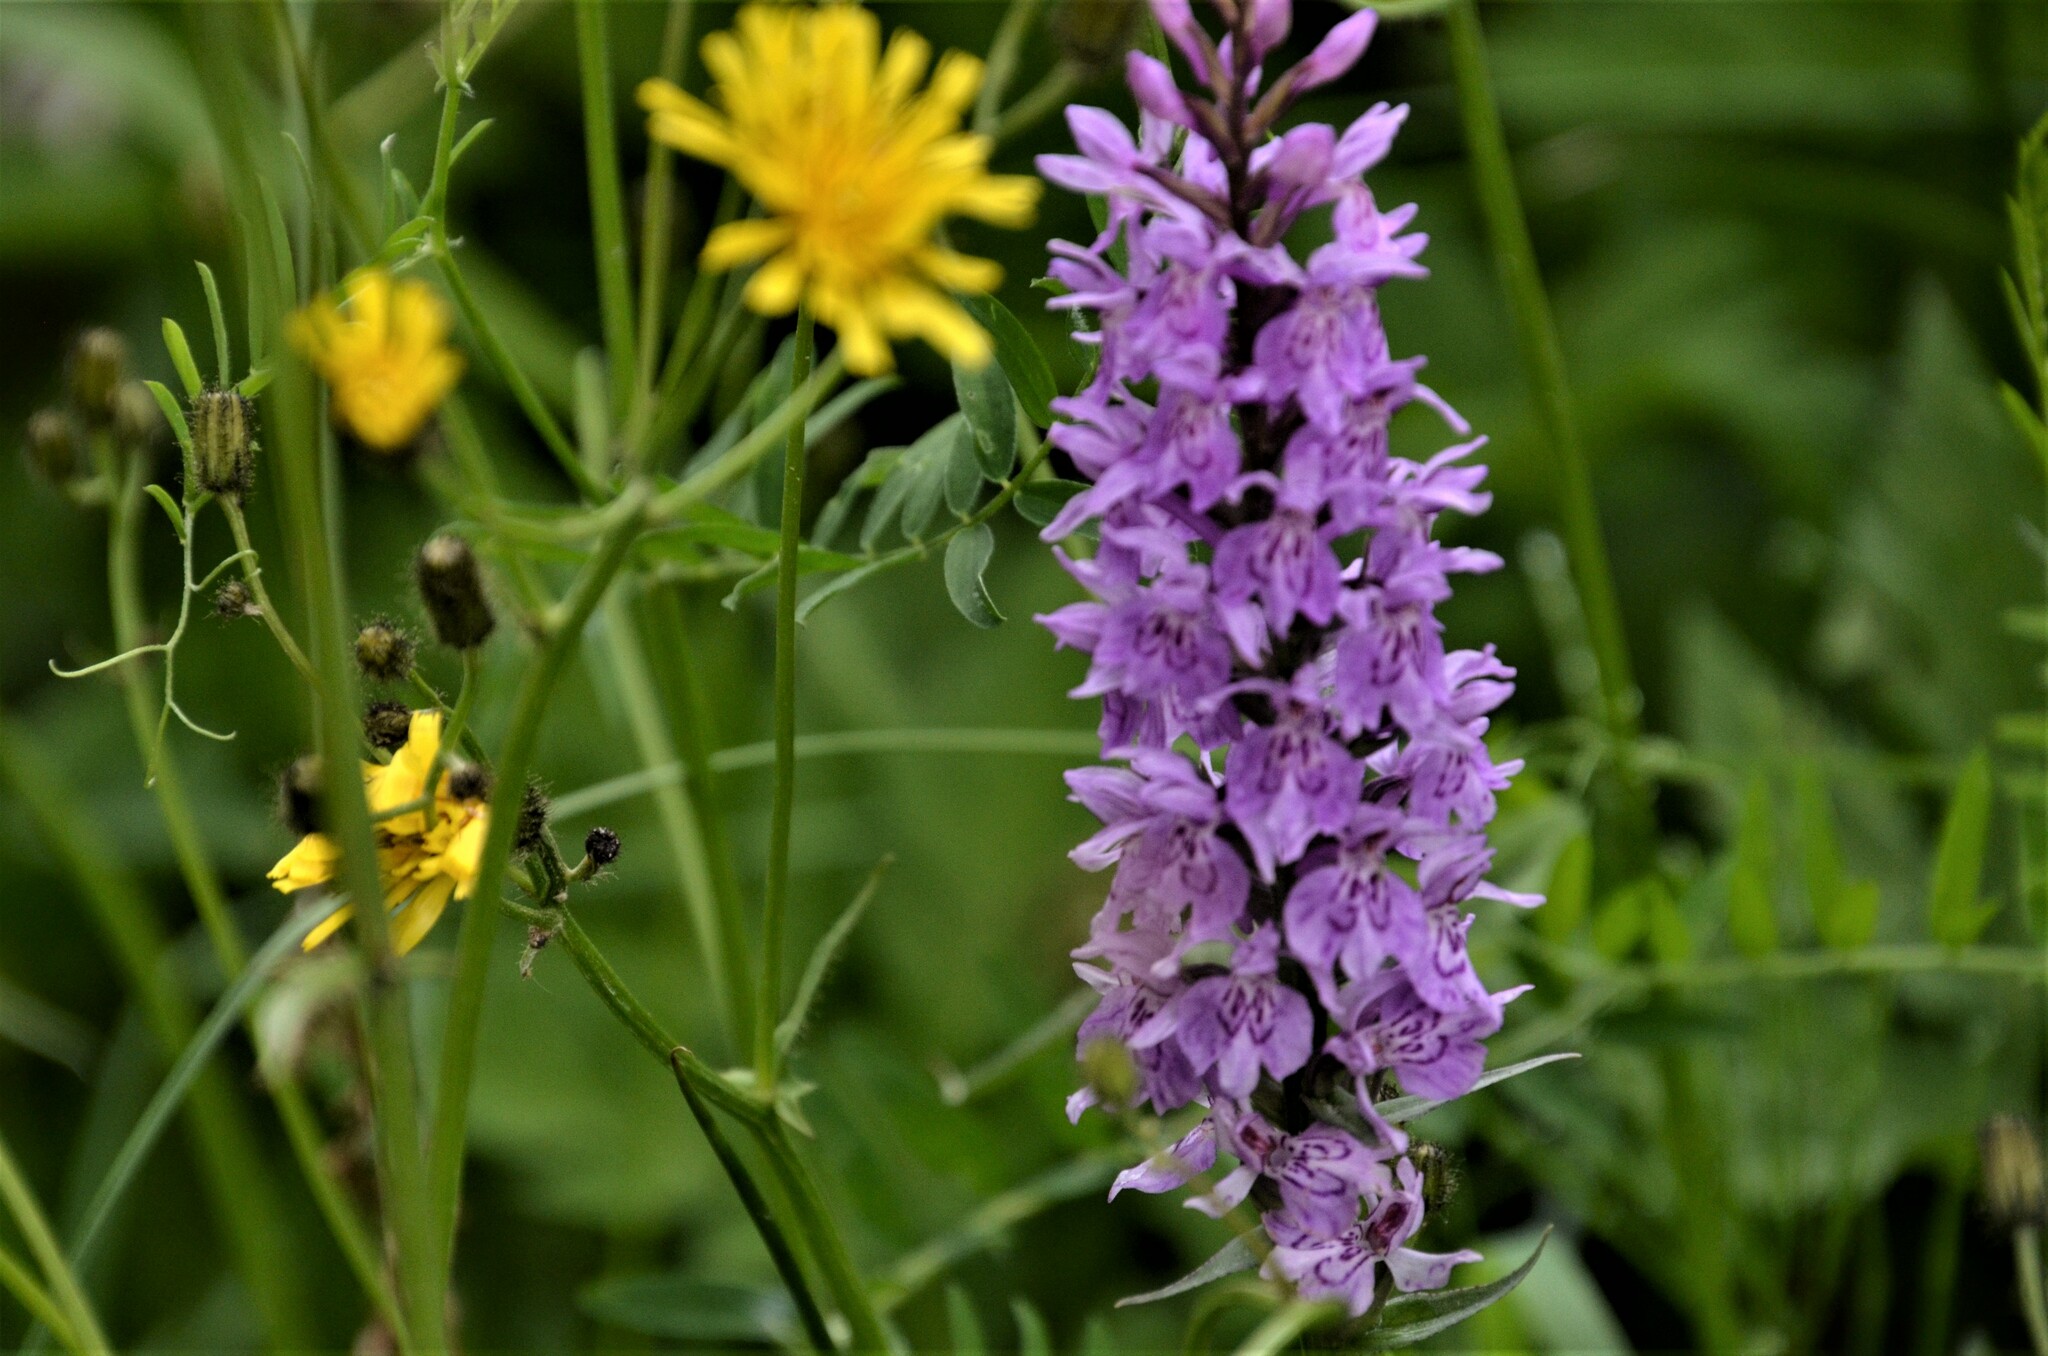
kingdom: Plantae
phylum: Tracheophyta
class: Liliopsida
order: Asparagales
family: Orchidaceae
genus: Dactylorhiza
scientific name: Dactylorhiza maculata
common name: Heath spotted-orchid
